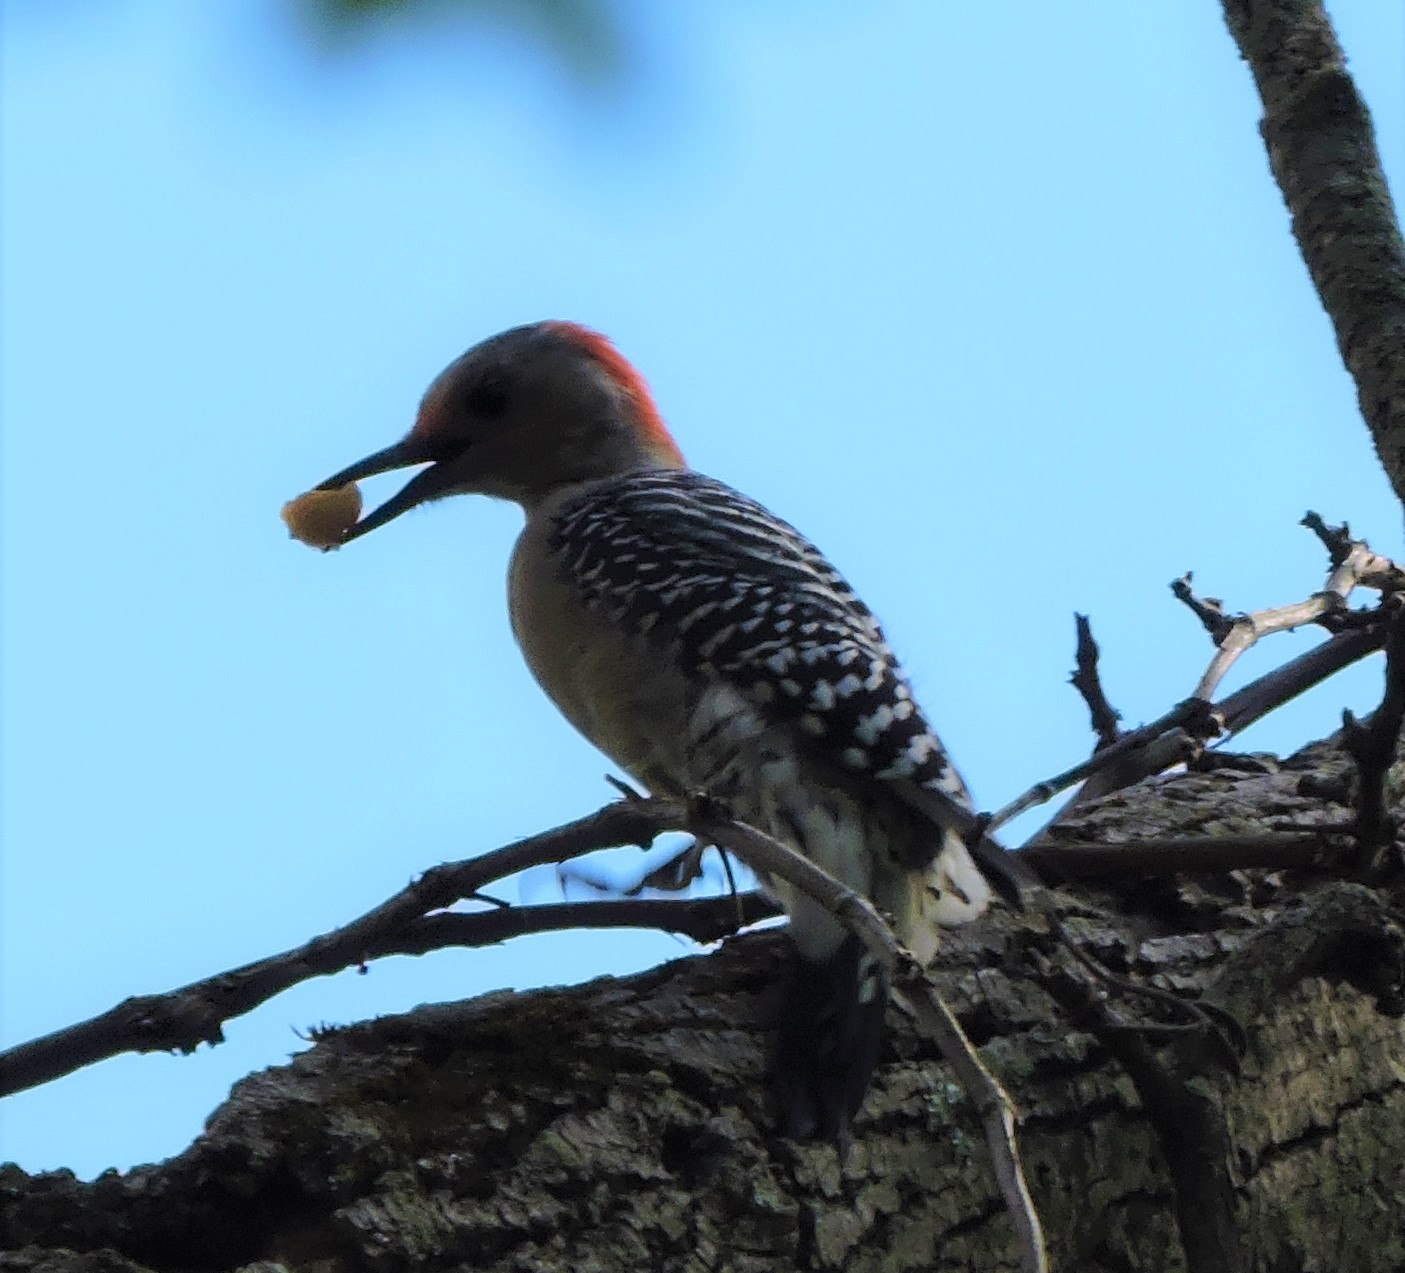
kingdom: Animalia
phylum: Chordata
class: Aves
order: Piciformes
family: Picidae
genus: Melanerpes
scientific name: Melanerpes carolinus
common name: Red-bellied woodpecker
